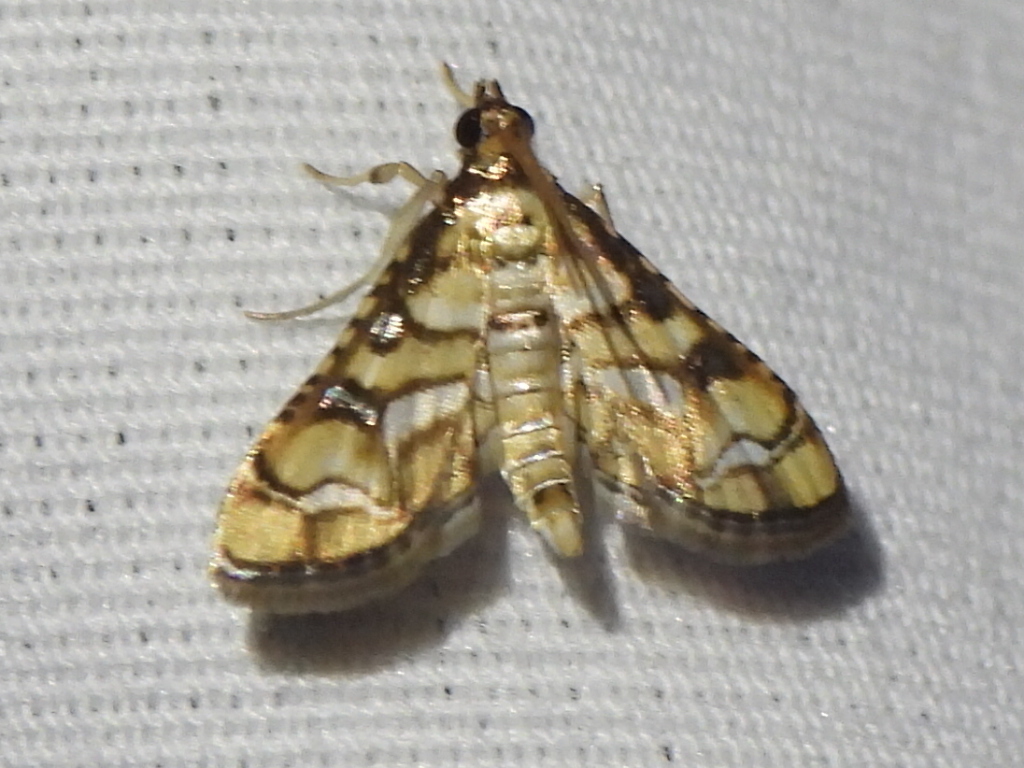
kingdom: Animalia
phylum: Arthropoda
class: Insecta
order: Lepidoptera
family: Crambidae
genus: Hileithia
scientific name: Hileithia magualis
